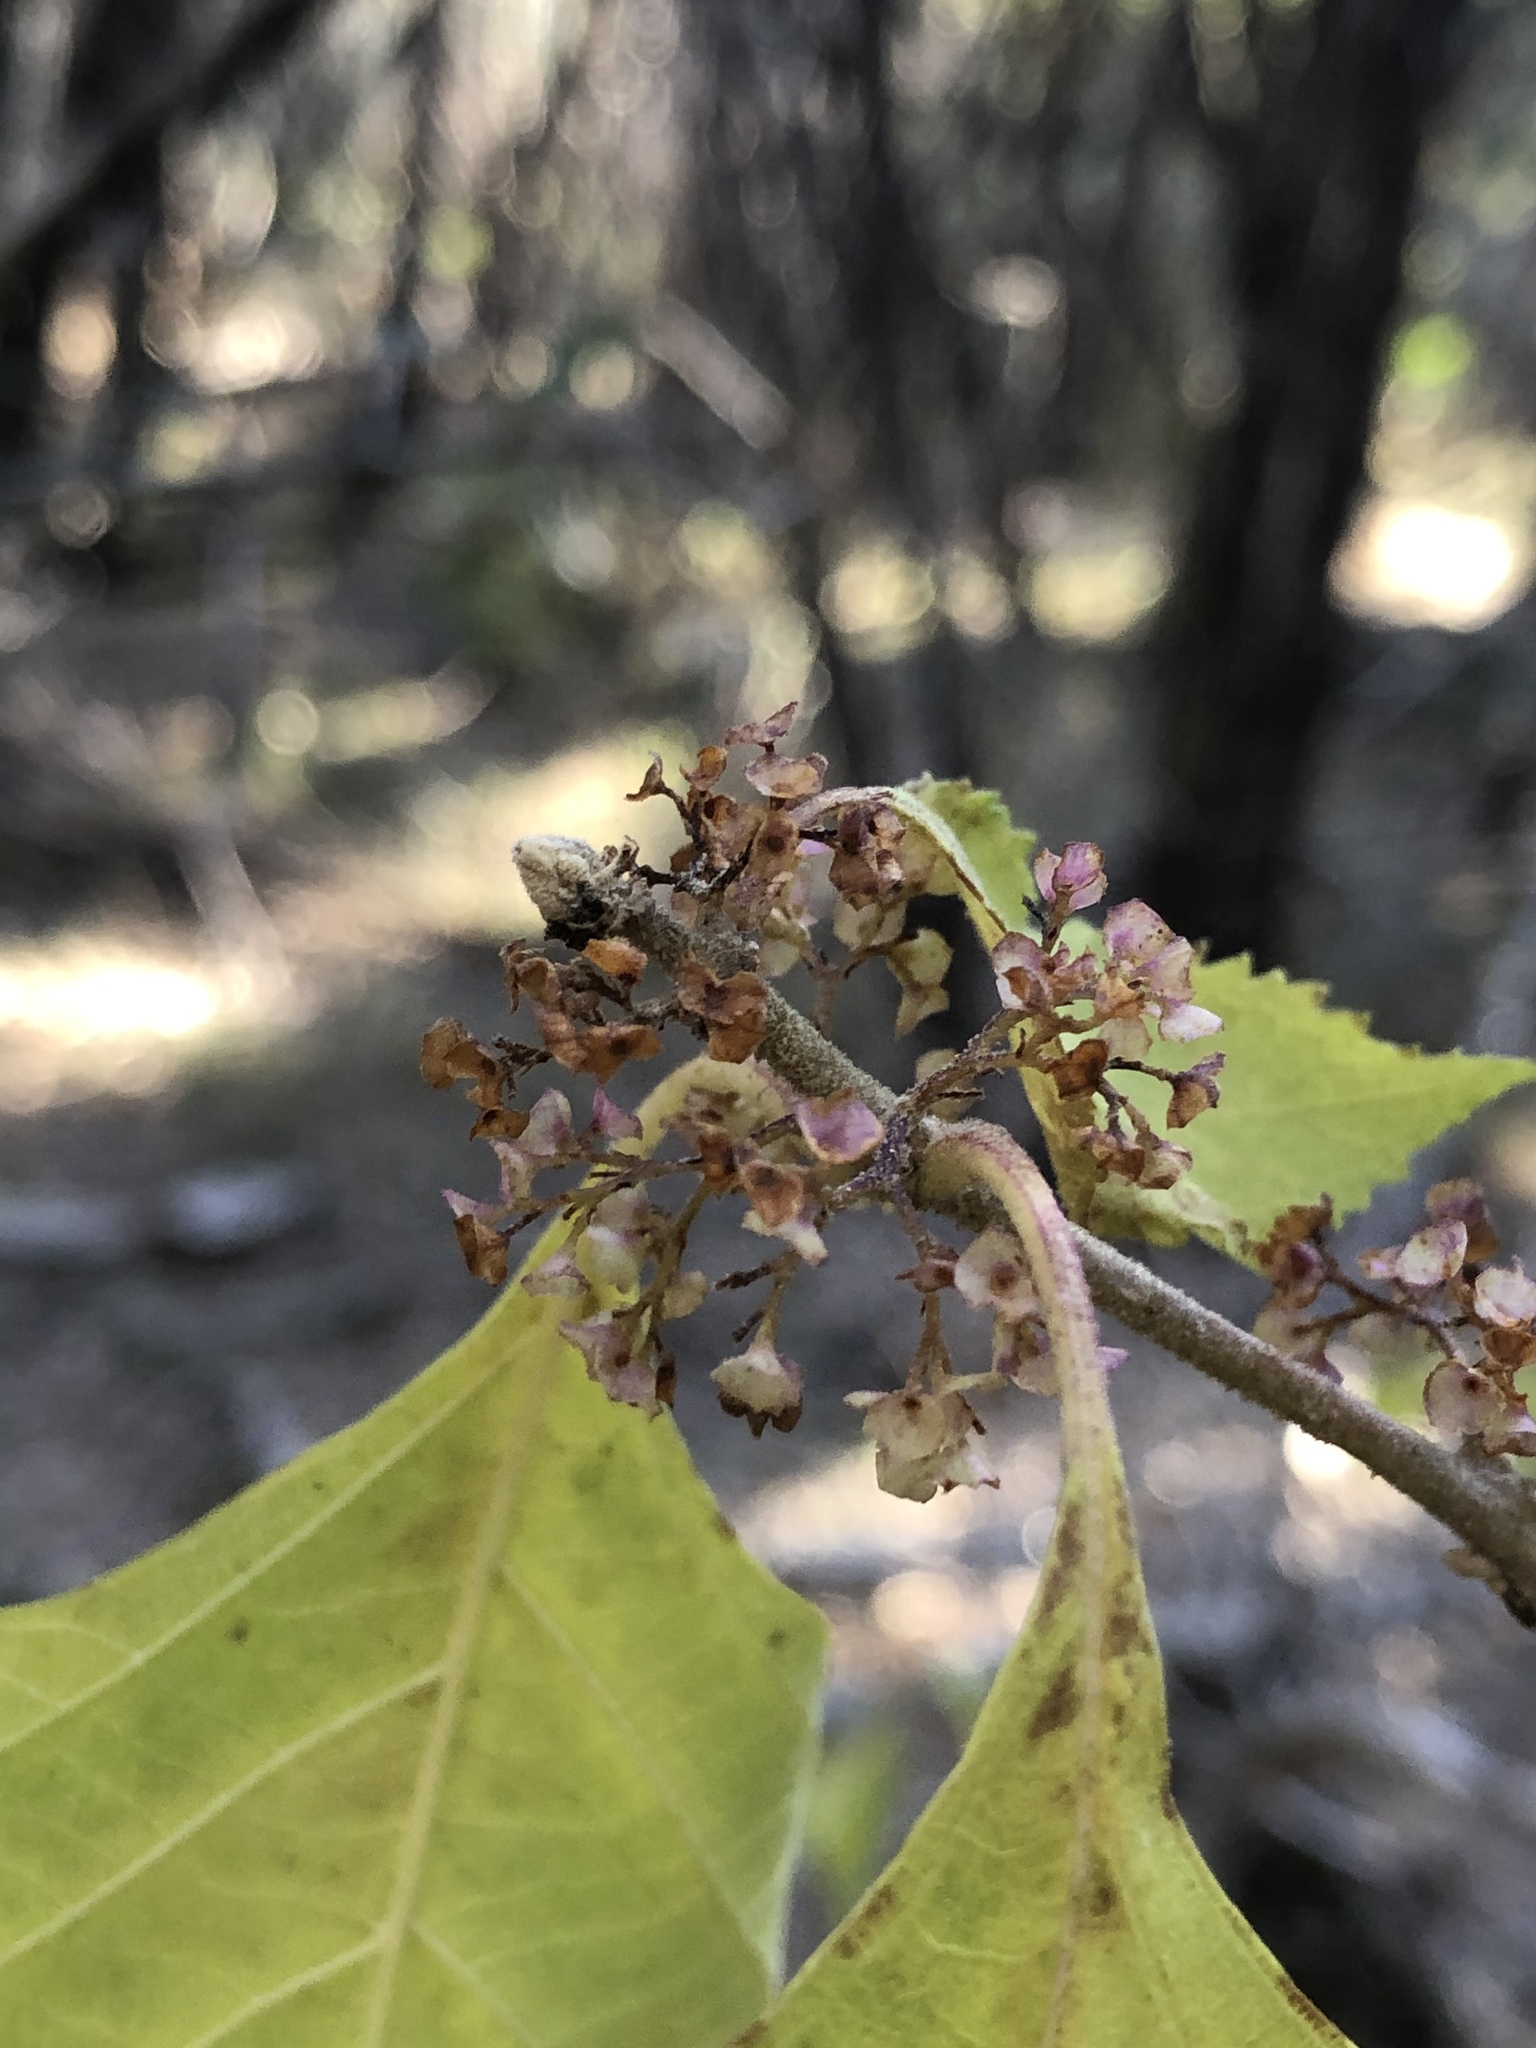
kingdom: Plantae
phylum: Tracheophyta
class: Magnoliopsida
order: Lamiales
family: Lamiaceae
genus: Callicarpa
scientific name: Callicarpa americana
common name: American beautyberry
